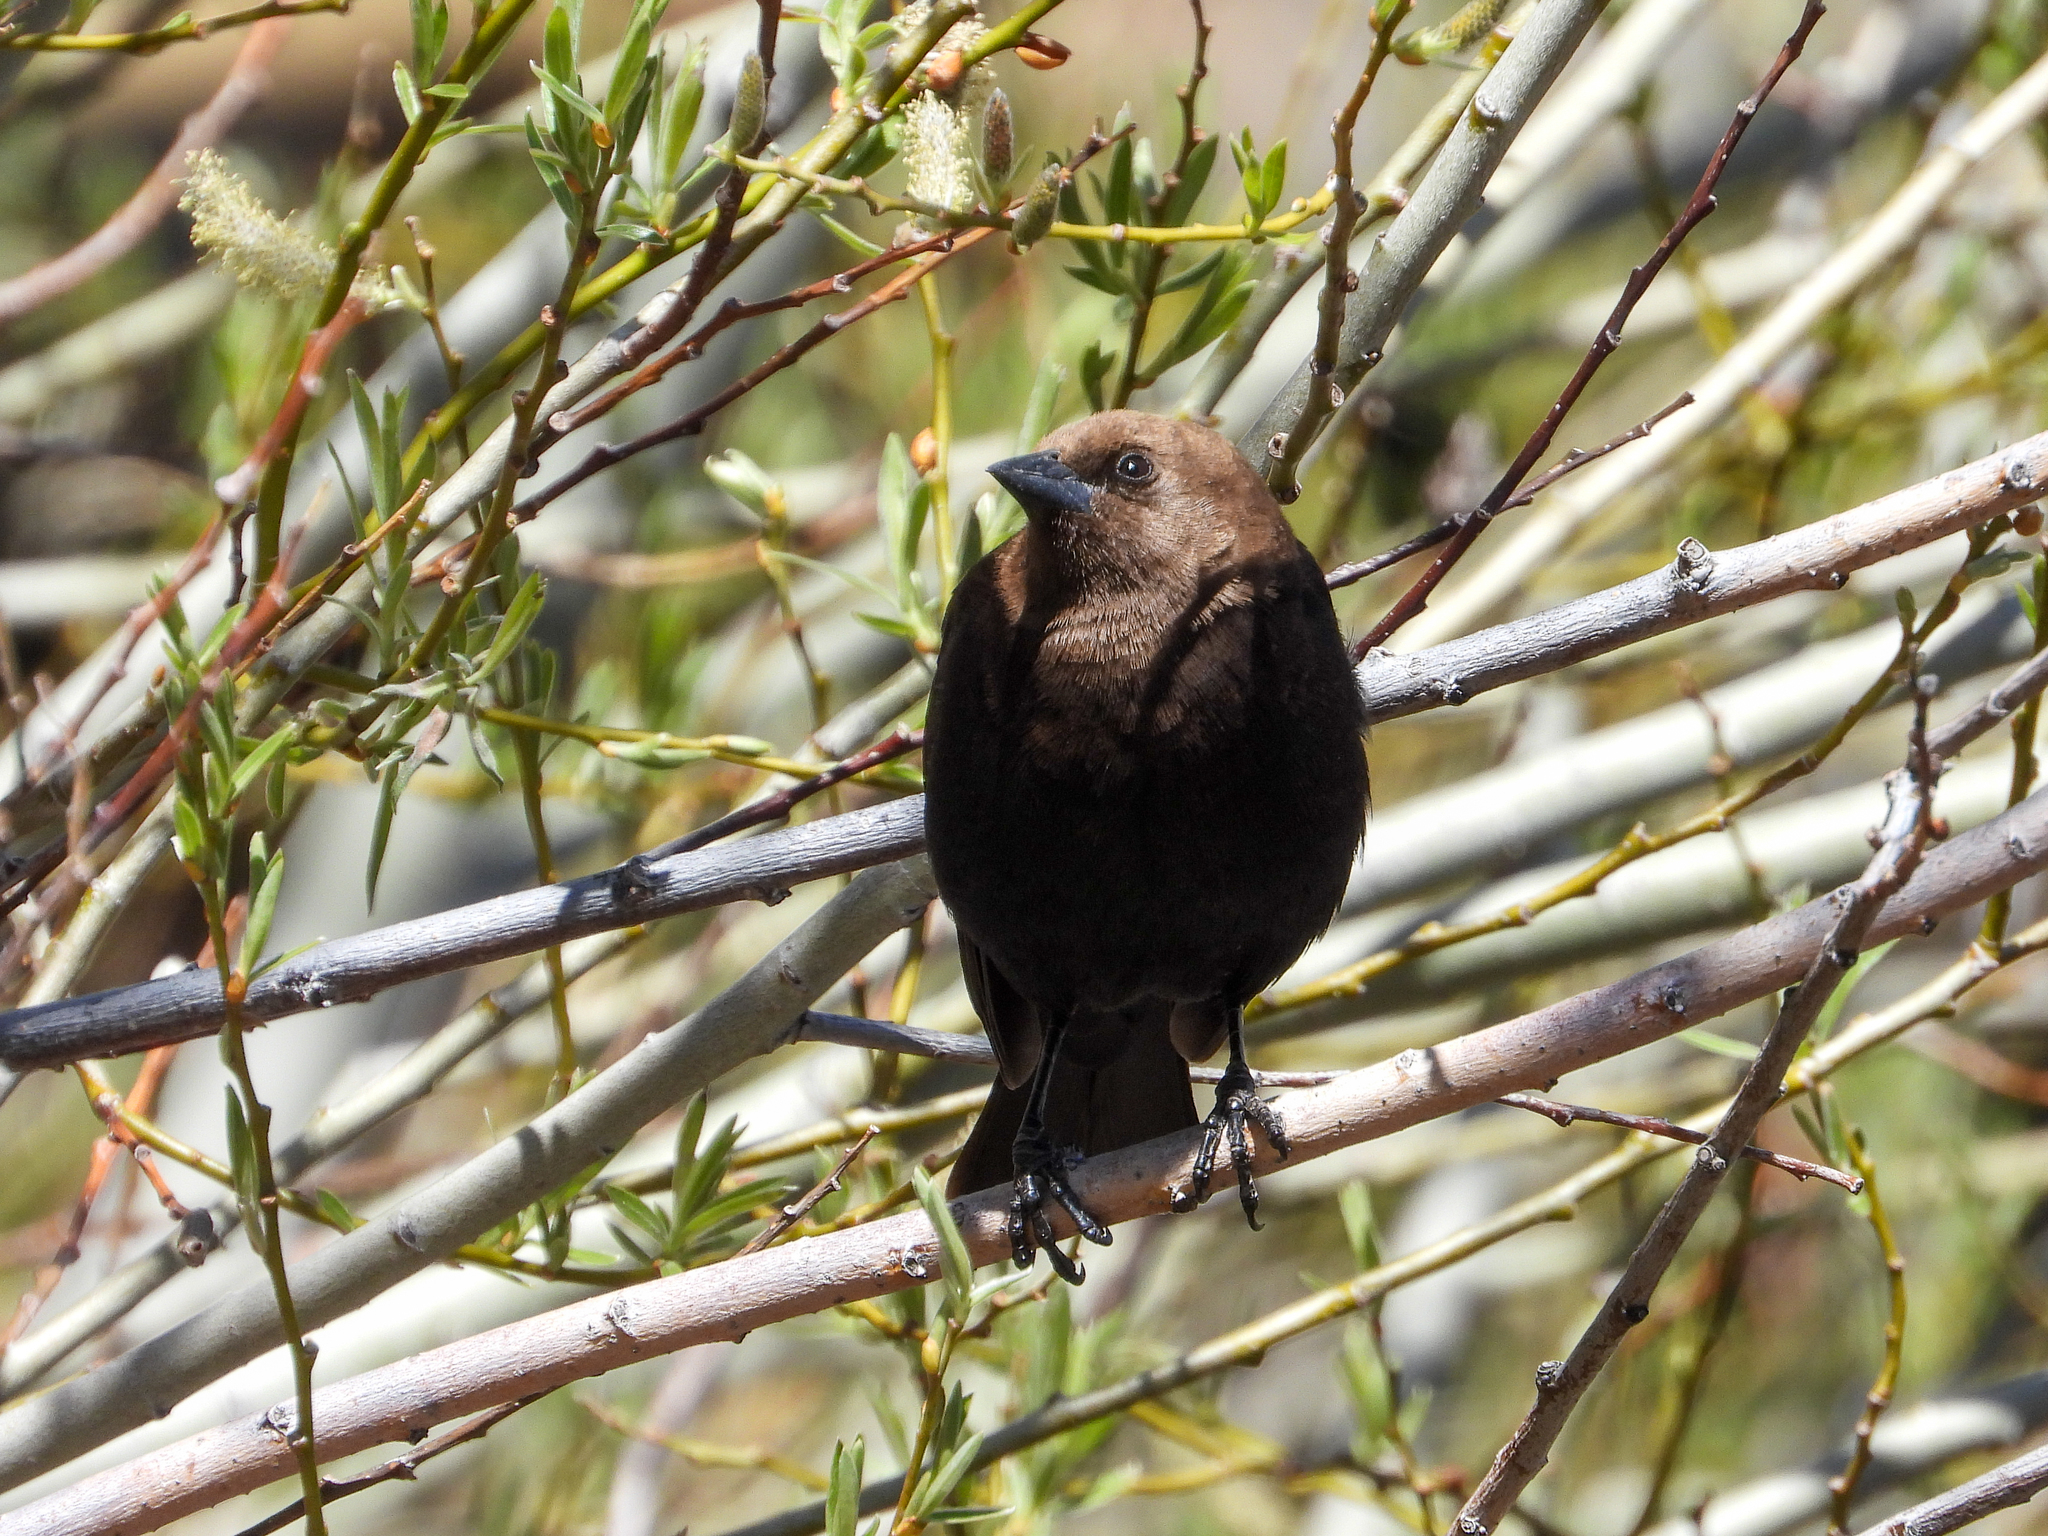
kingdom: Animalia
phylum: Chordata
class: Aves
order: Passeriformes
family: Icteridae
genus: Molothrus
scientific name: Molothrus ater
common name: Brown-headed cowbird
